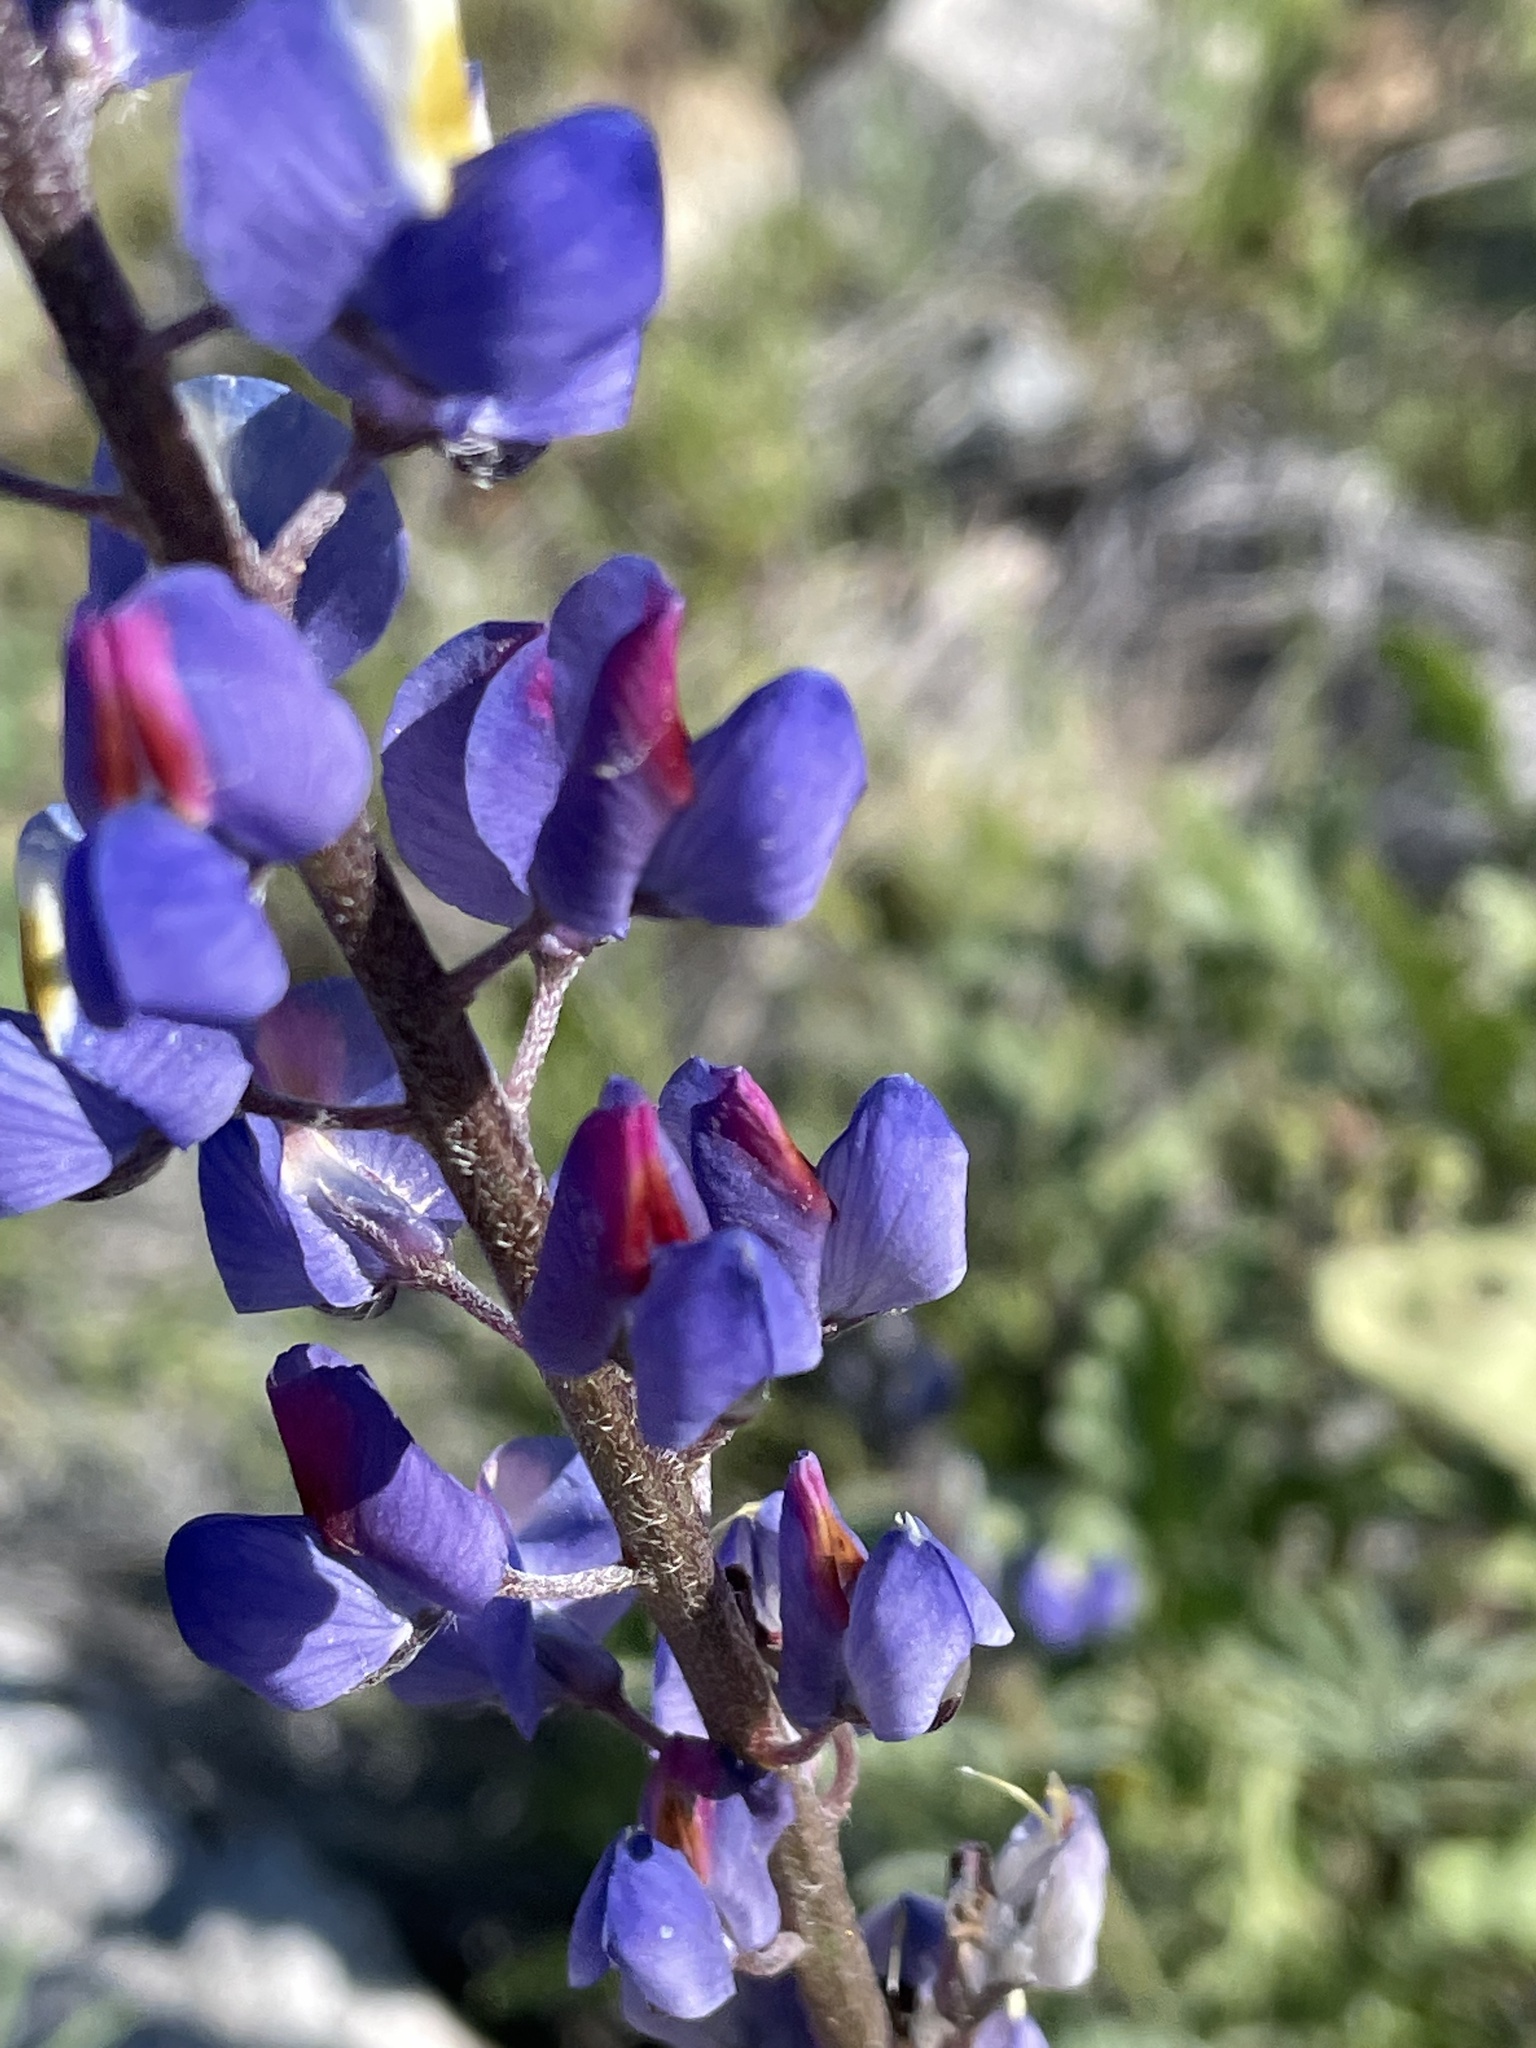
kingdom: Plantae
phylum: Tracheophyta
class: Magnoliopsida
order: Fabales
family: Fabaceae
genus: Lupinus
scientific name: Lupinus sparsiflorus
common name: Coulter's lupine
